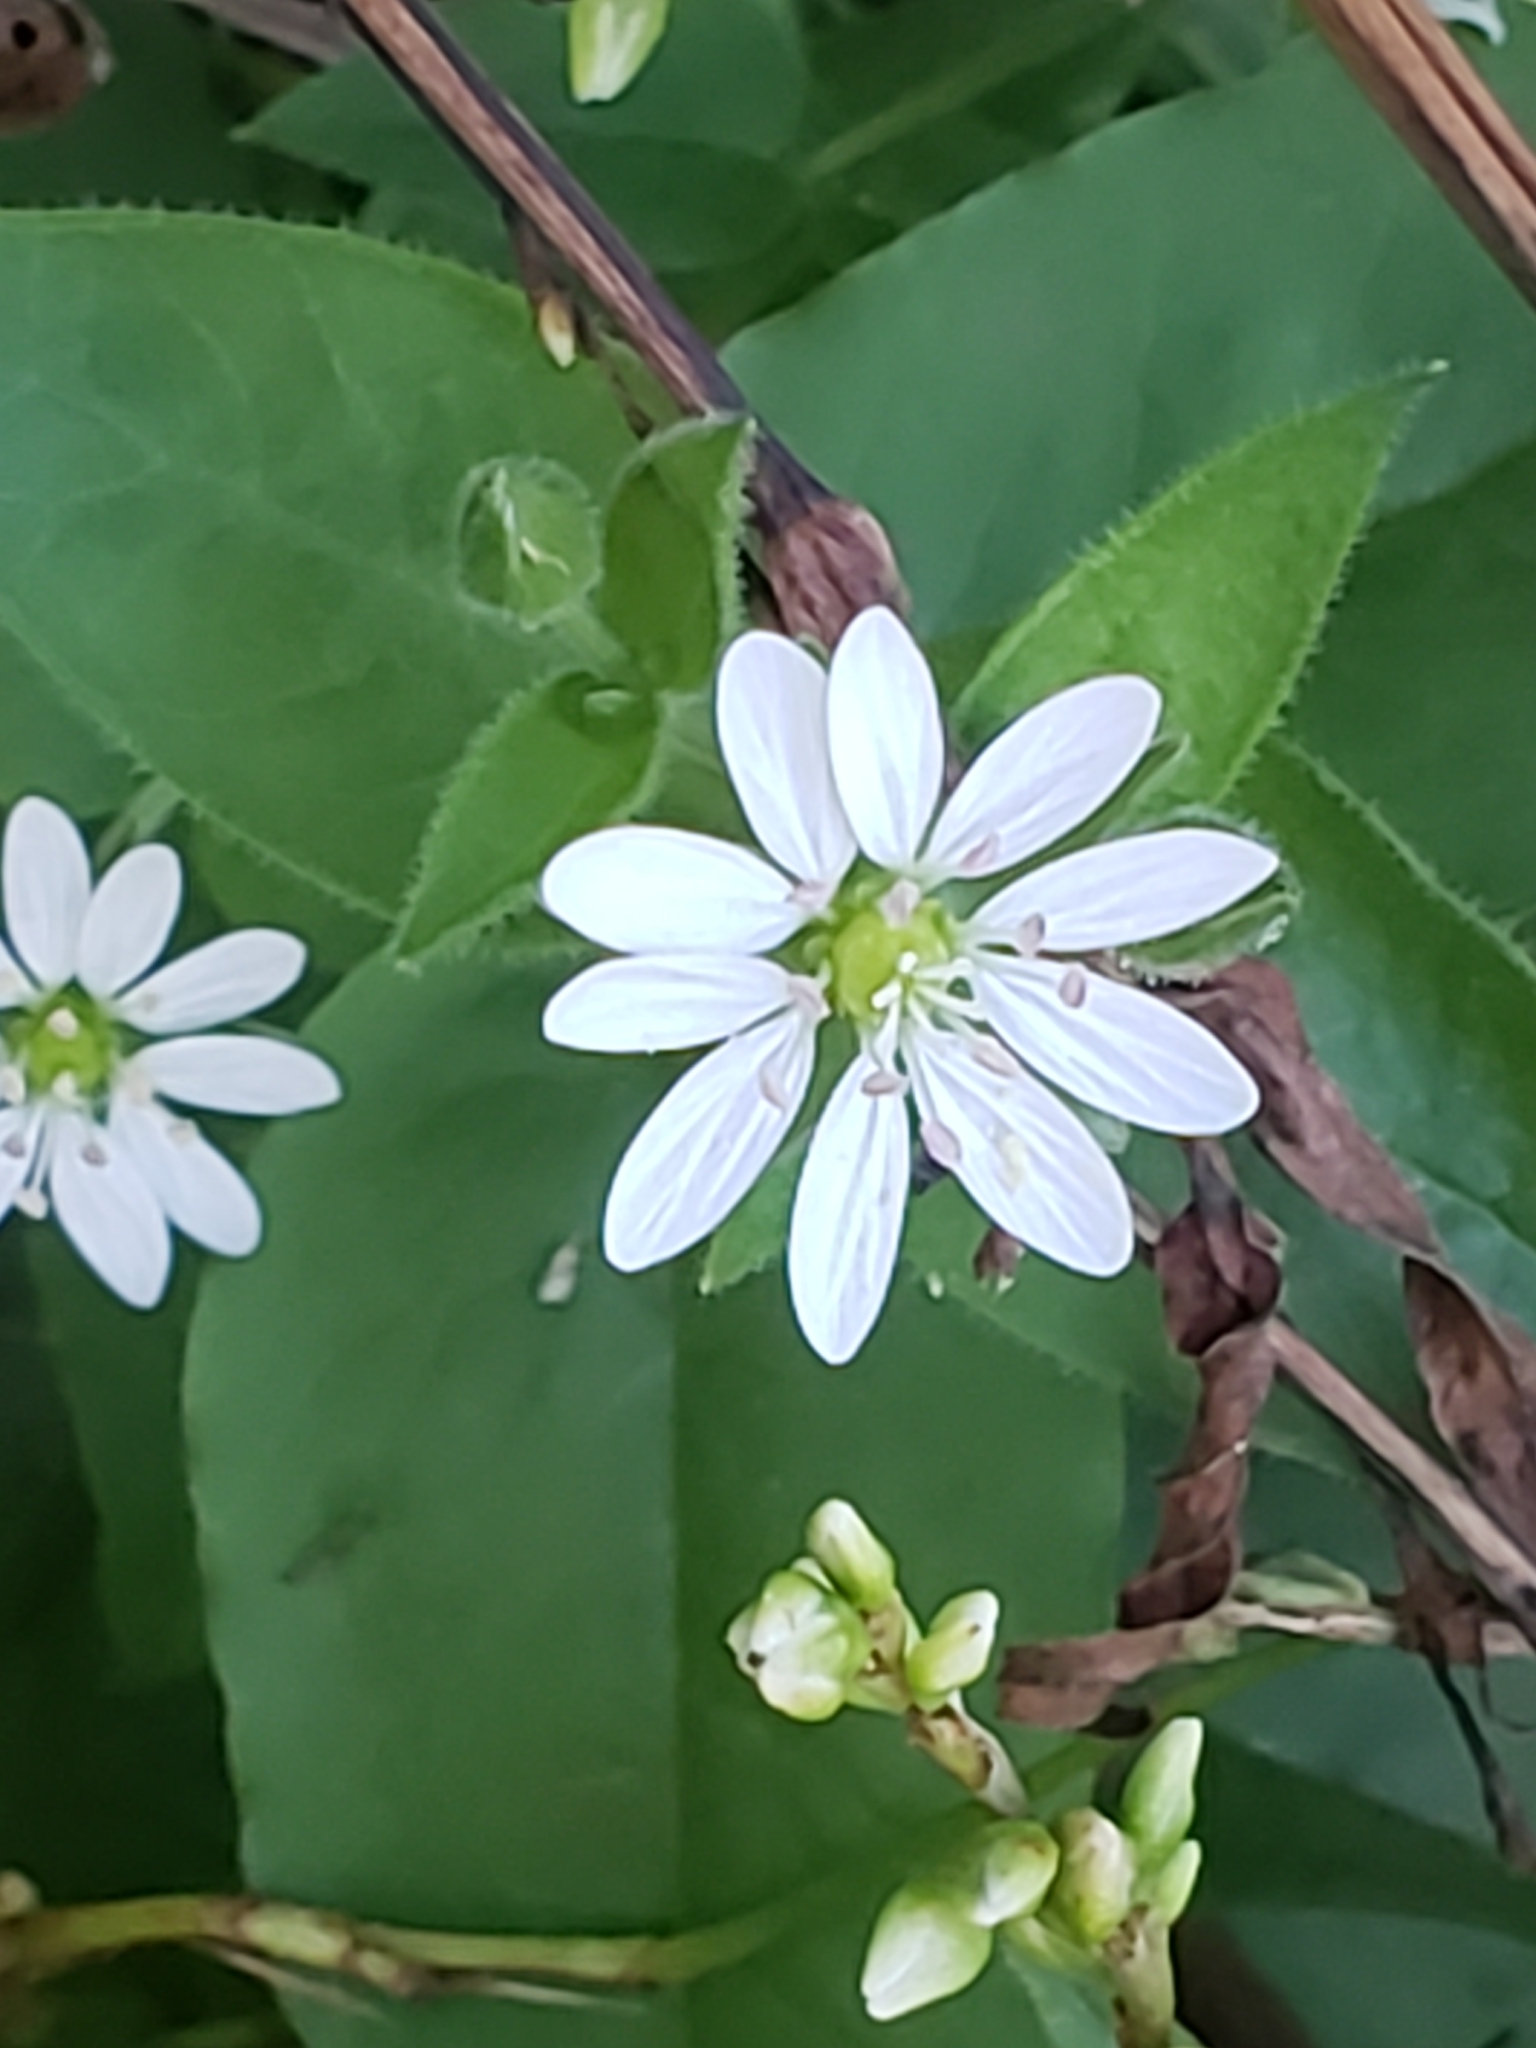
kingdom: Plantae
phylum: Tracheophyta
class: Magnoliopsida
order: Caryophyllales
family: Caryophyllaceae
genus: Stellaria
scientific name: Stellaria aquatica
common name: Water chickweed
